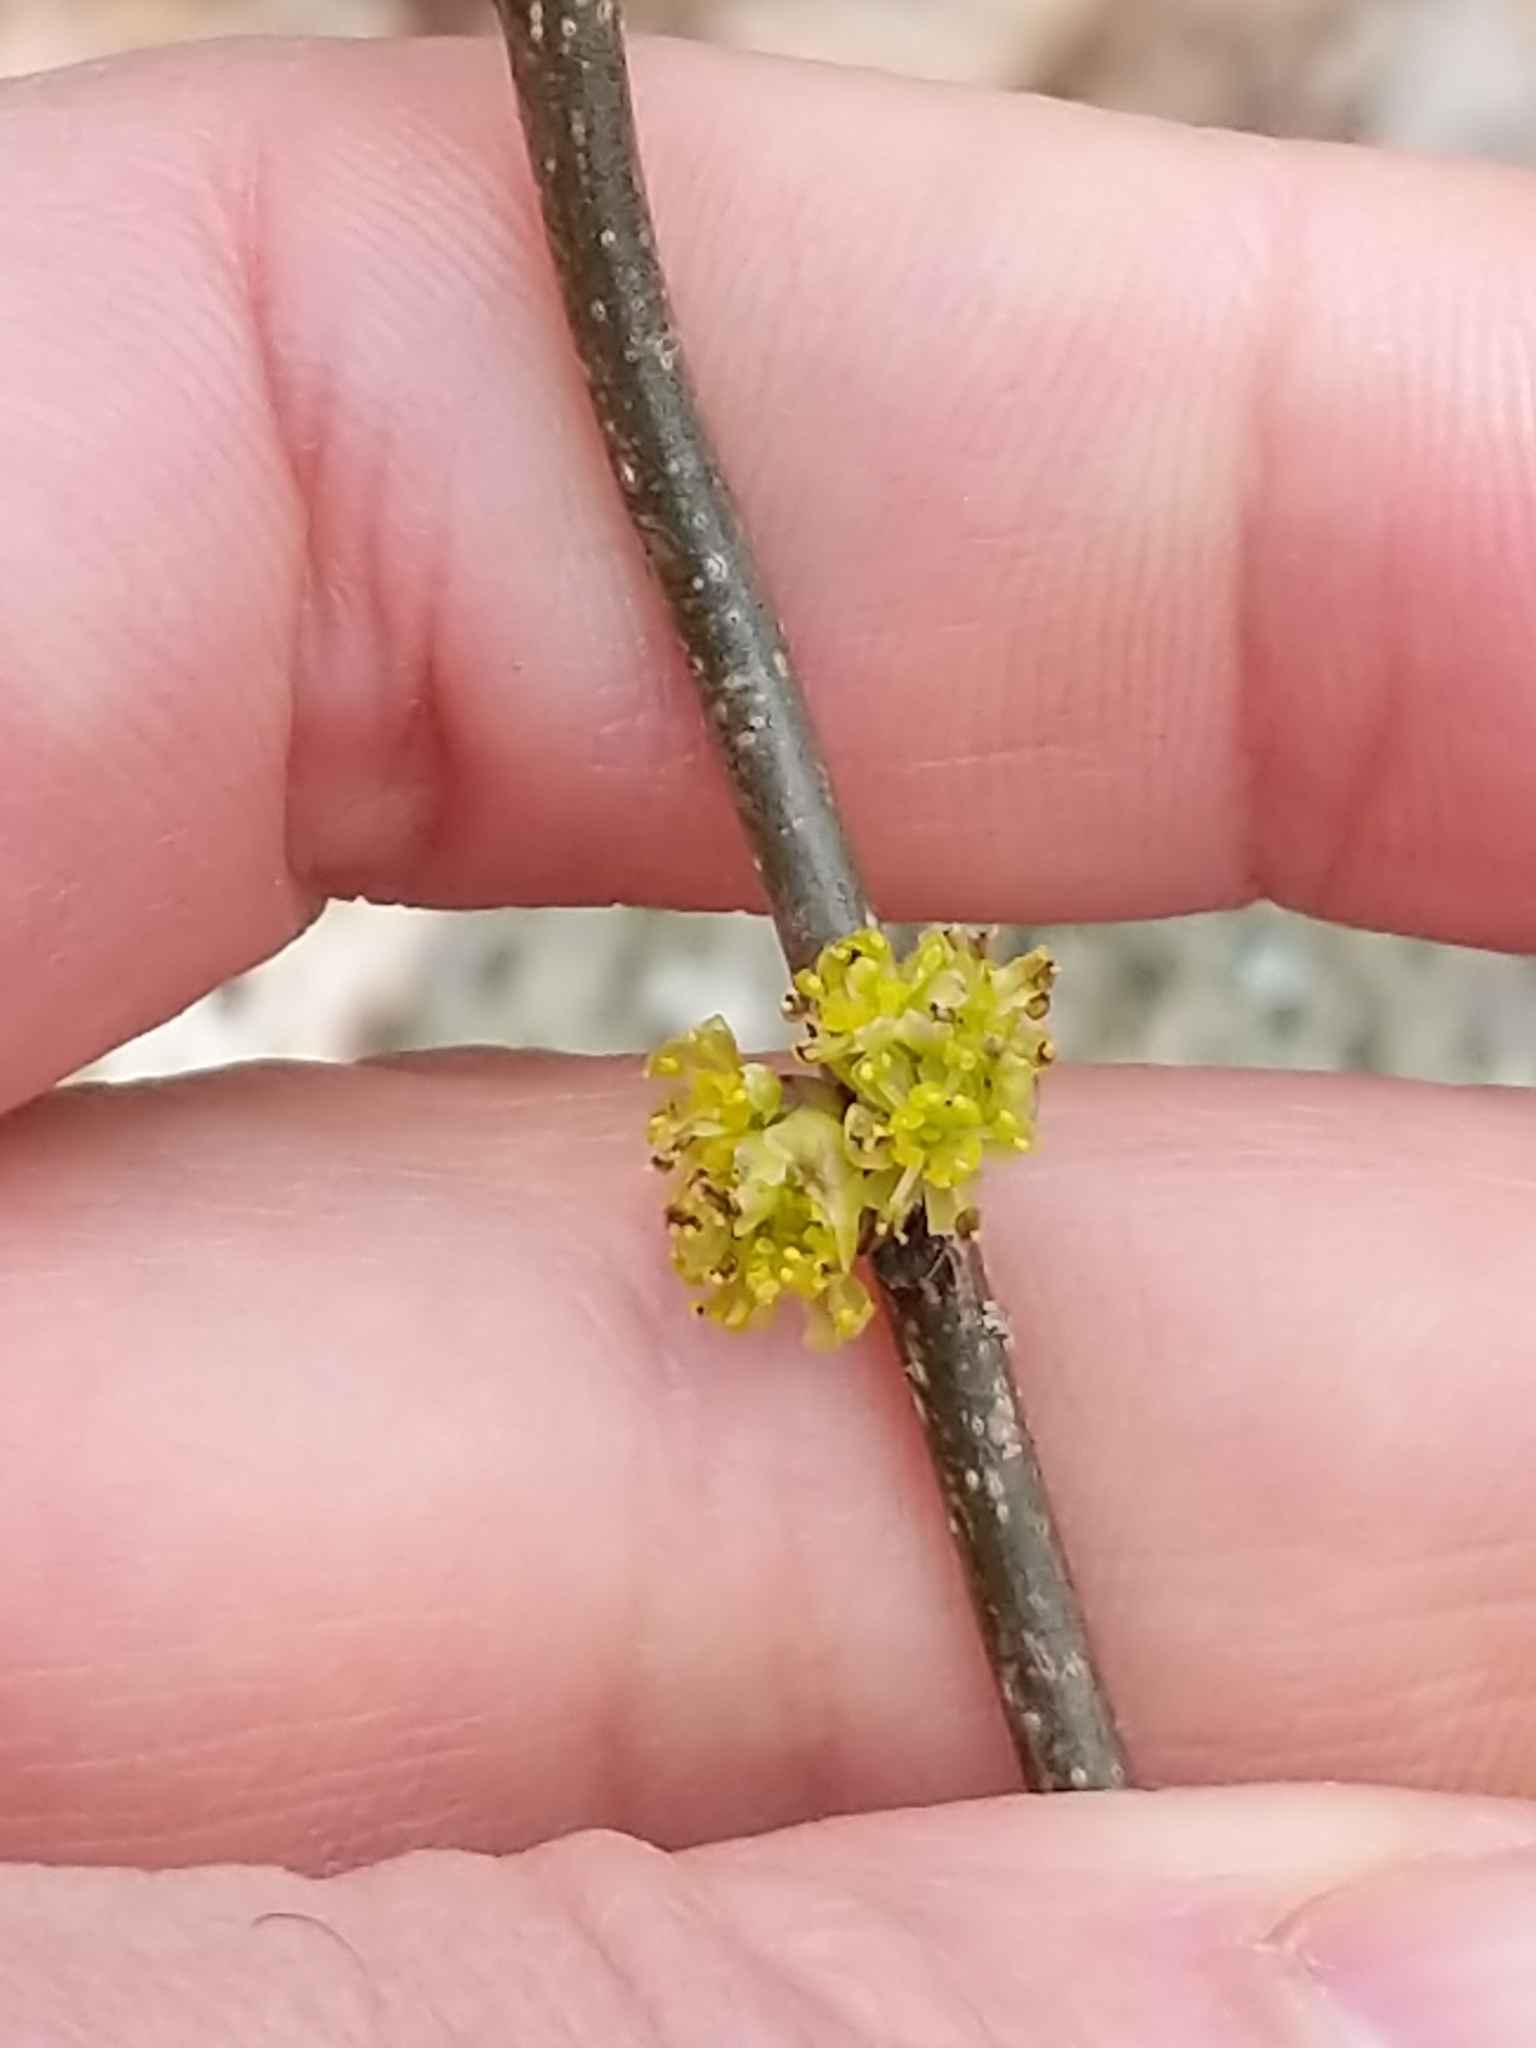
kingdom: Plantae
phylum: Tracheophyta
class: Magnoliopsida
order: Laurales
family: Lauraceae
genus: Lindera
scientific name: Lindera benzoin
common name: Spicebush
